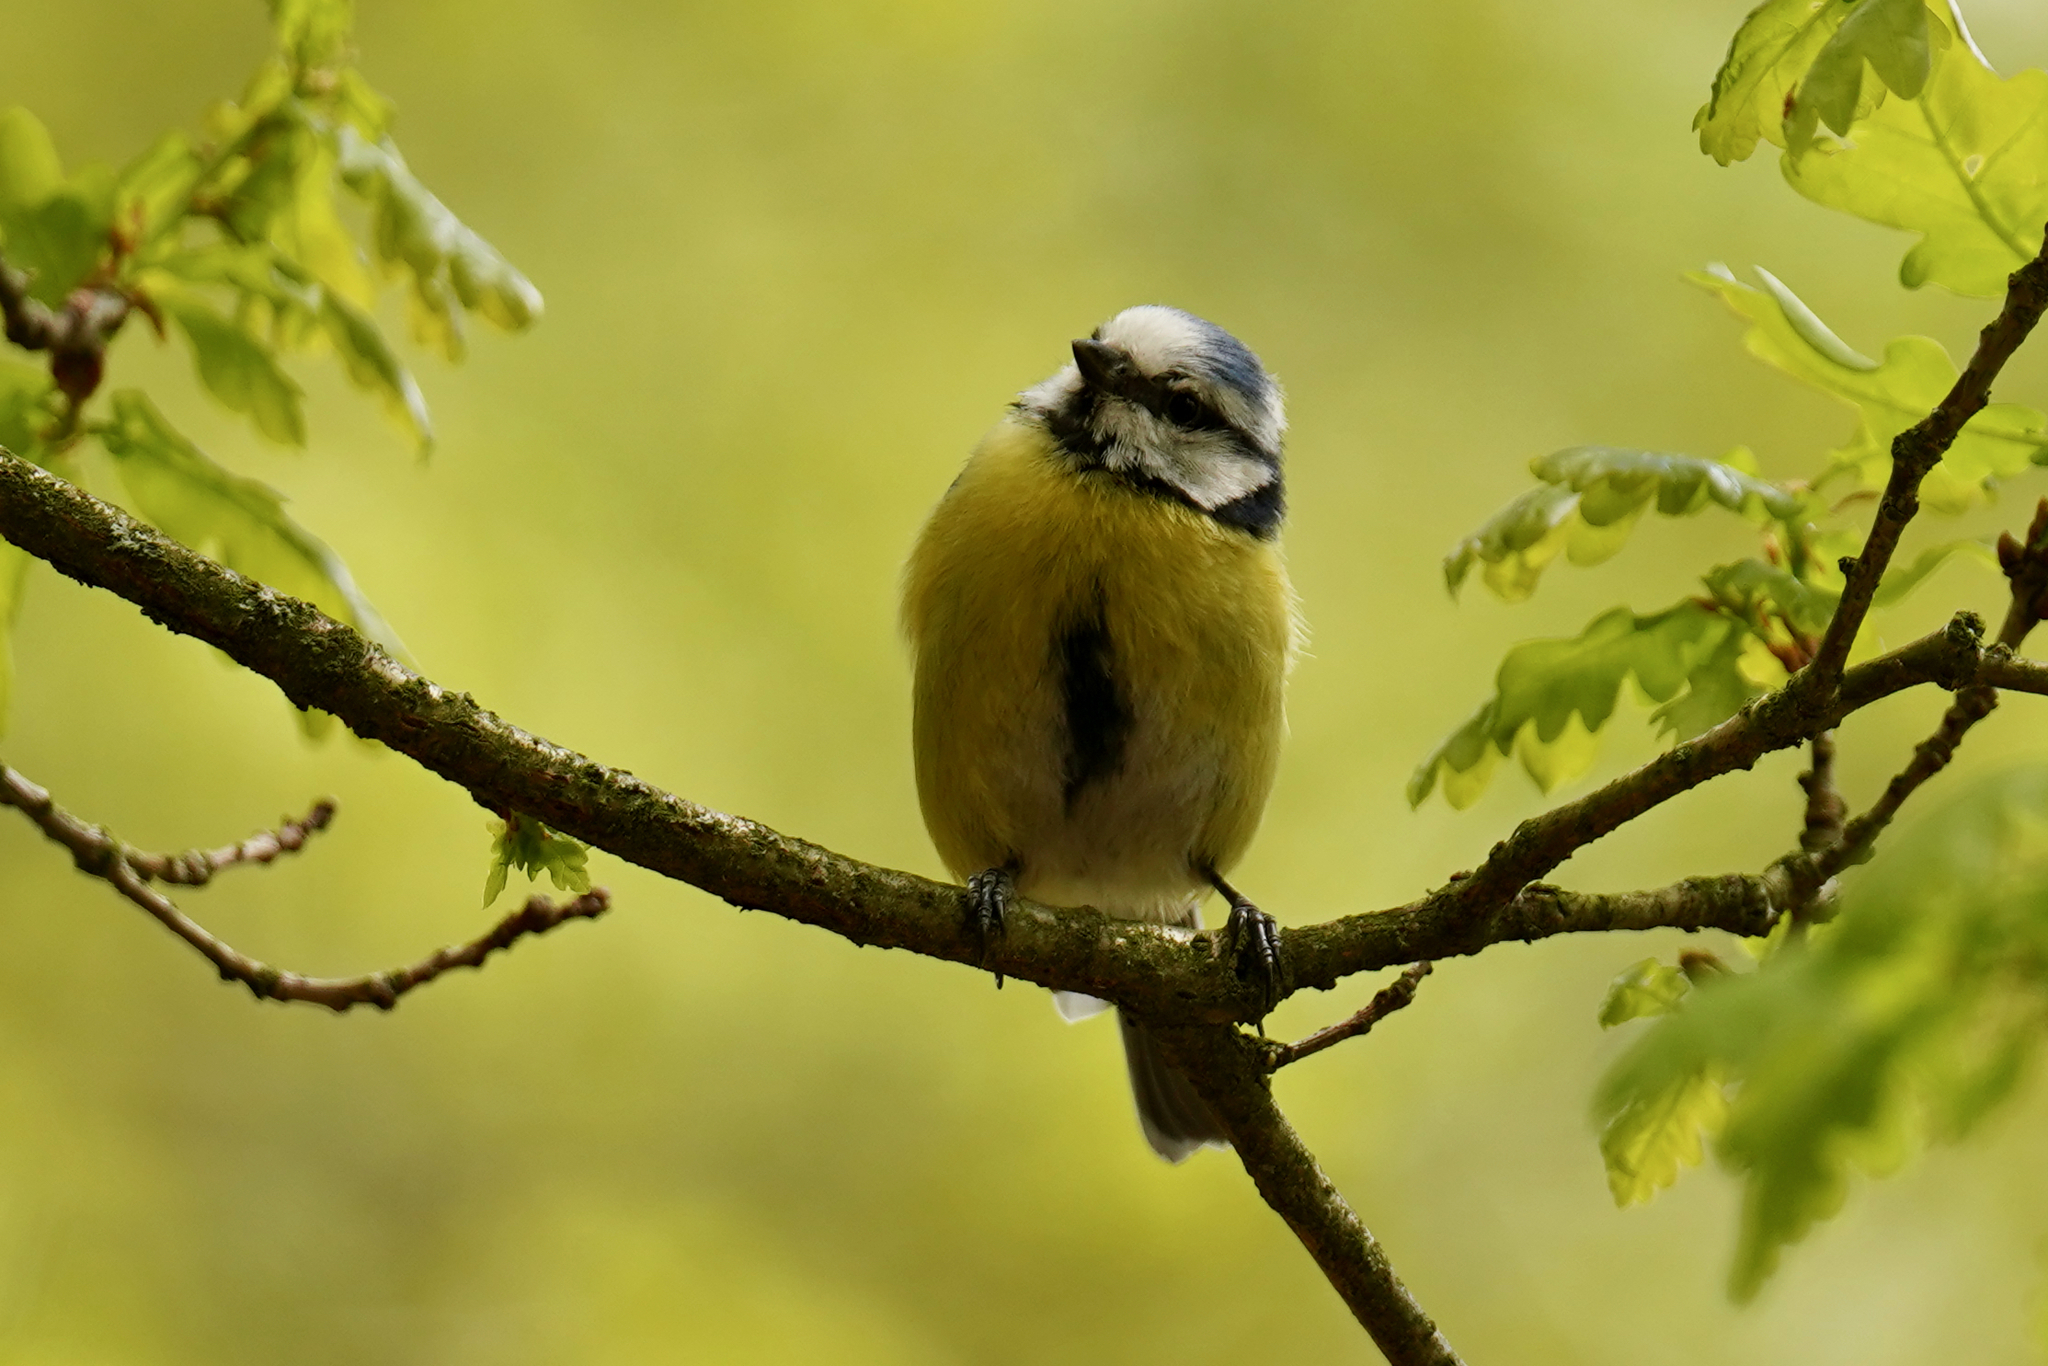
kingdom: Animalia
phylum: Chordata
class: Aves
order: Passeriformes
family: Paridae
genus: Cyanistes
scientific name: Cyanistes caeruleus
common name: Eurasian blue tit
